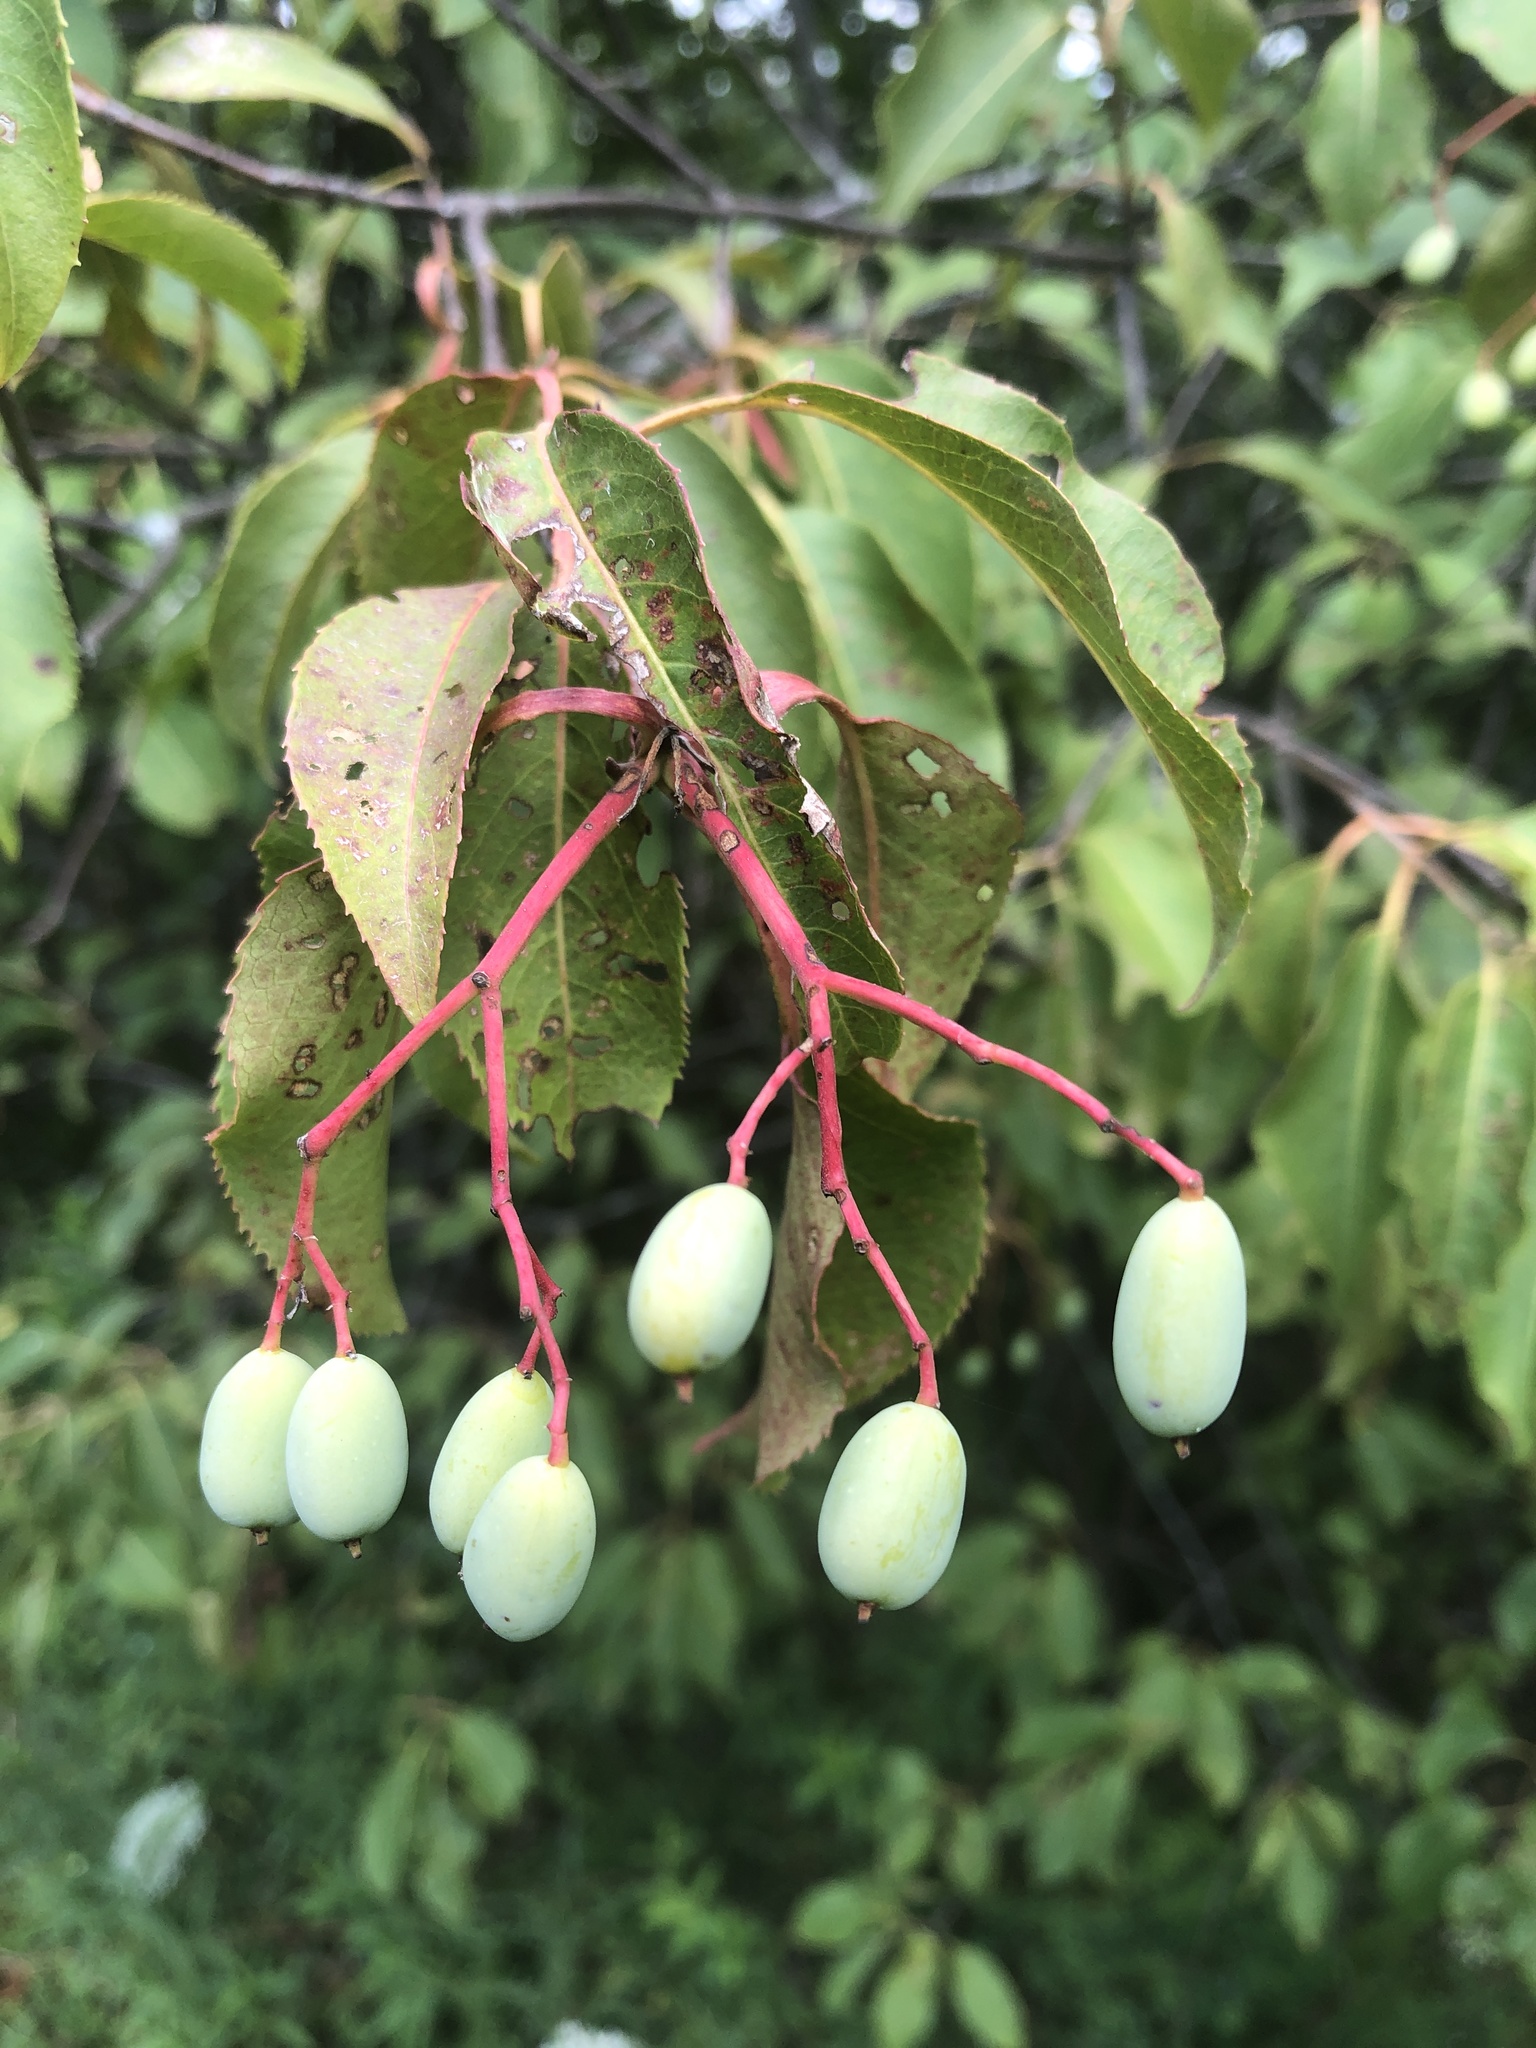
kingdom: Plantae
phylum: Tracheophyta
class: Magnoliopsida
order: Dipsacales
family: Viburnaceae
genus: Viburnum
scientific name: Viburnum lentago
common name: Black haw
